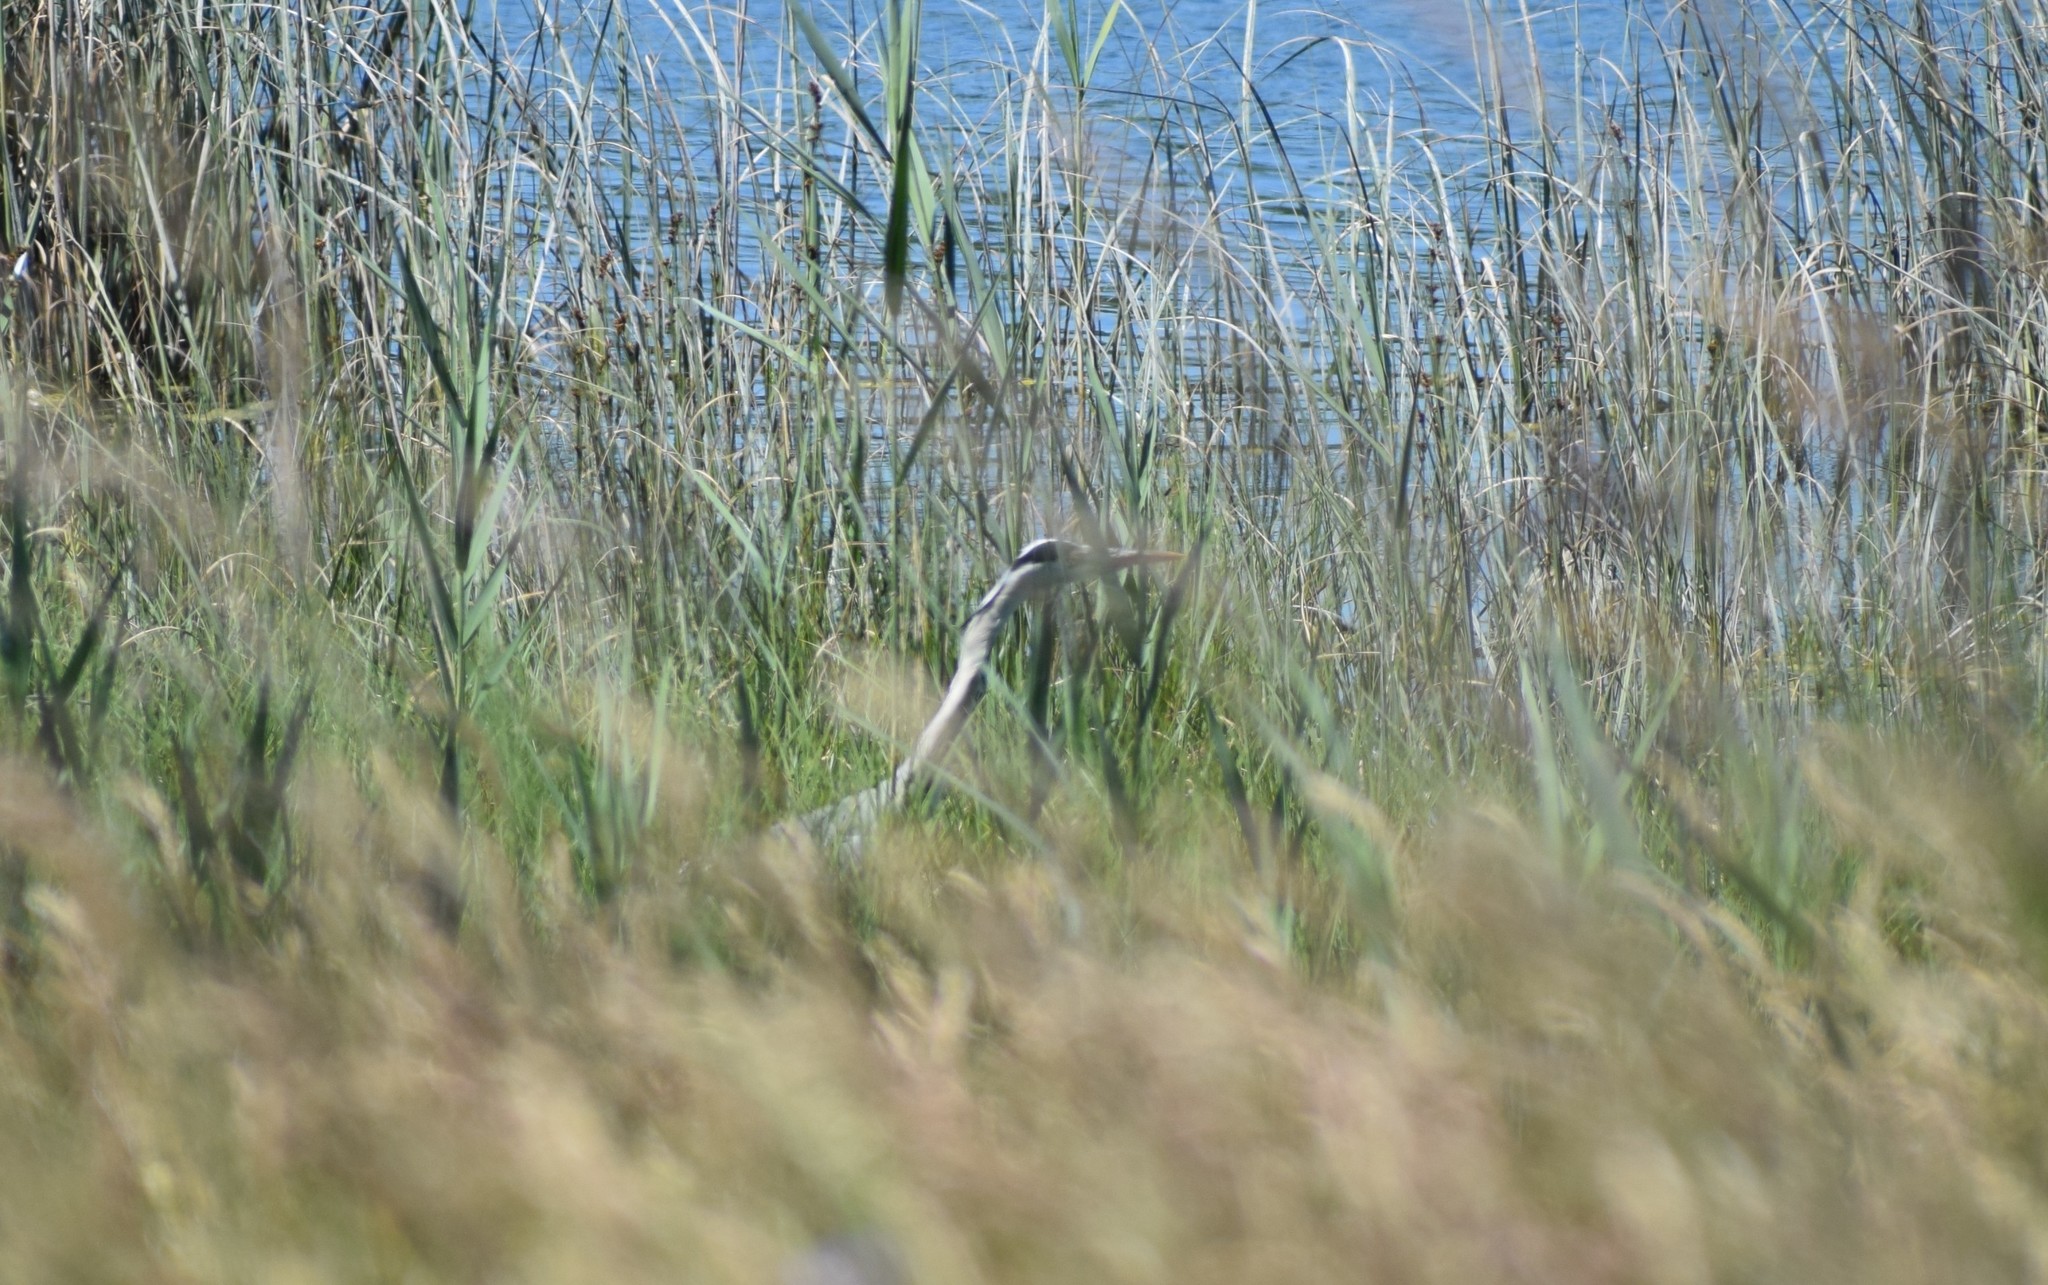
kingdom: Animalia
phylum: Chordata
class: Aves
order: Pelecaniformes
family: Ardeidae
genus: Ardea
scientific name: Ardea cinerea
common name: Grey heron
